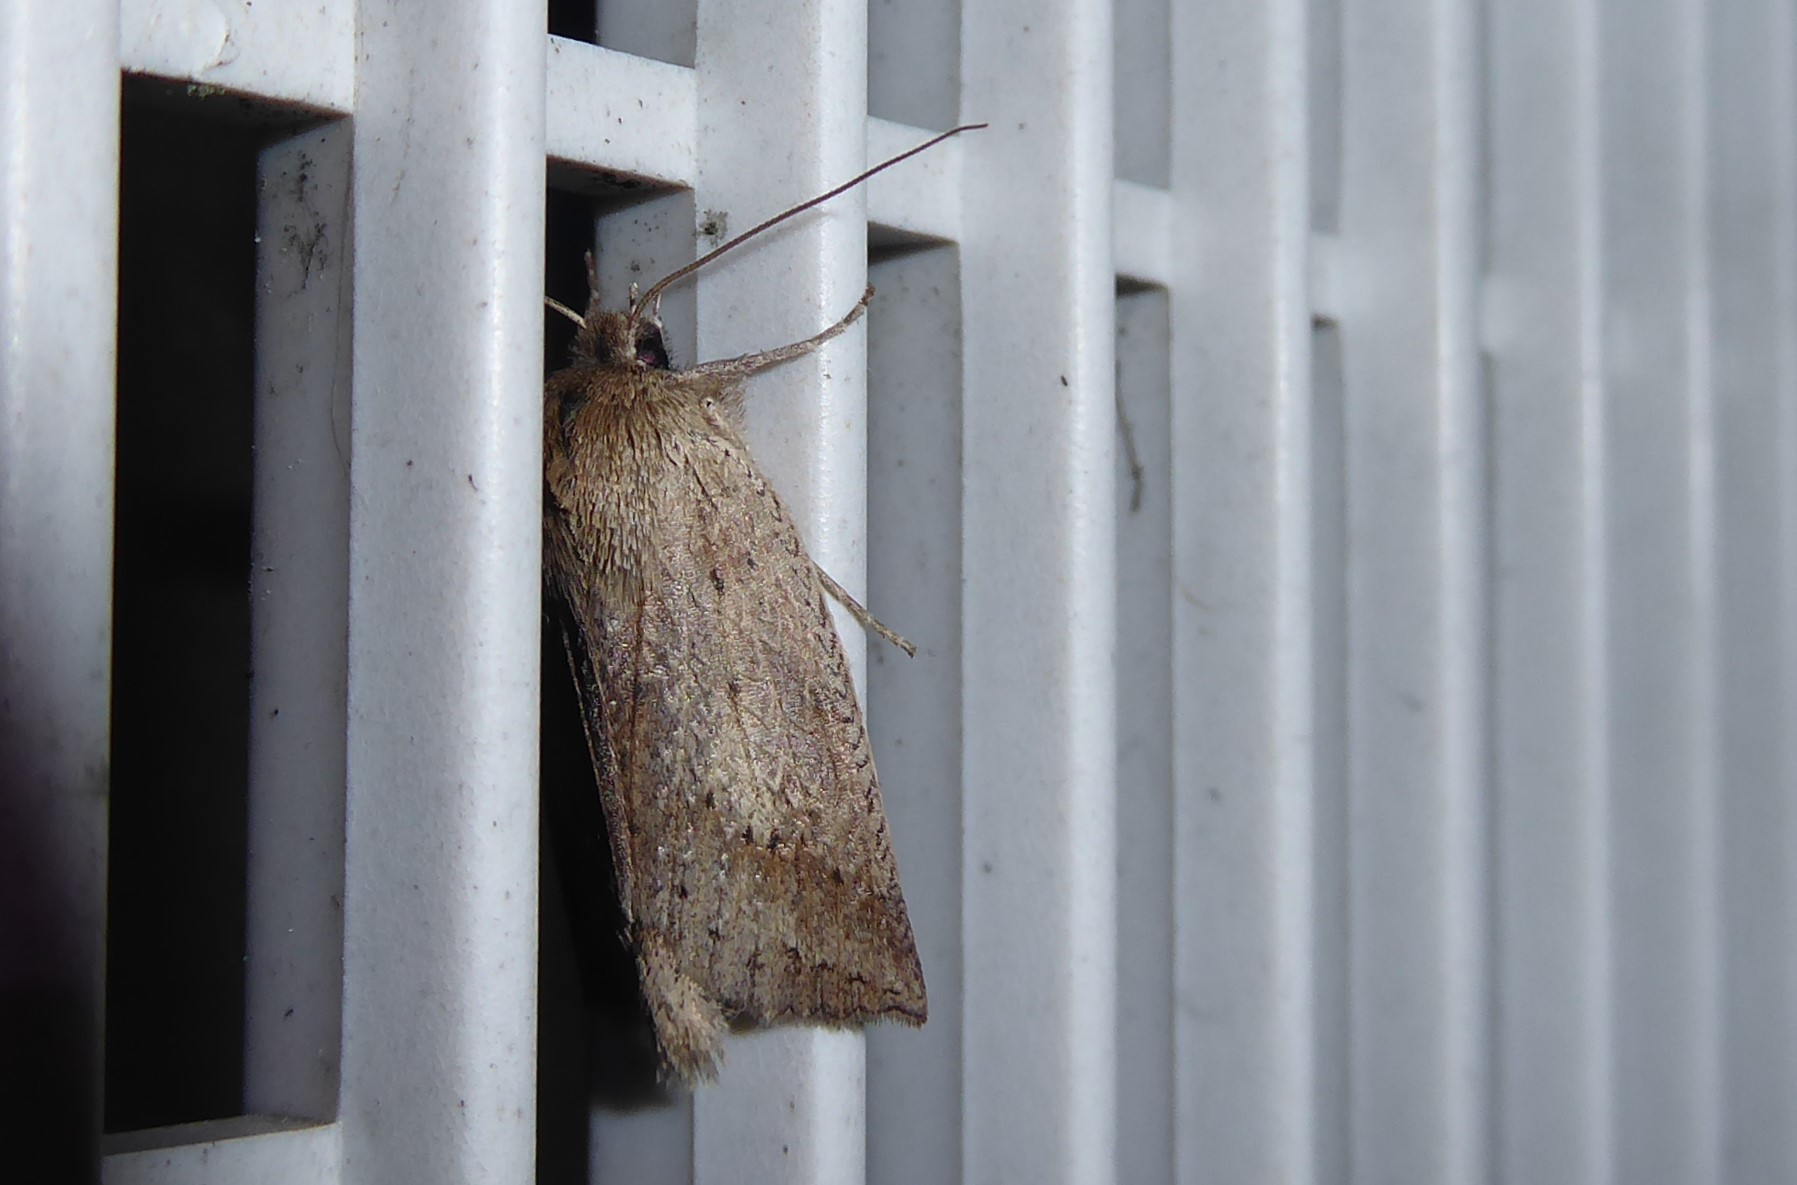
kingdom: Animalia
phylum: Arthropoda
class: Insecta
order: Lepidoptera
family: Geometridae
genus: Declana
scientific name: Declana leptomera
